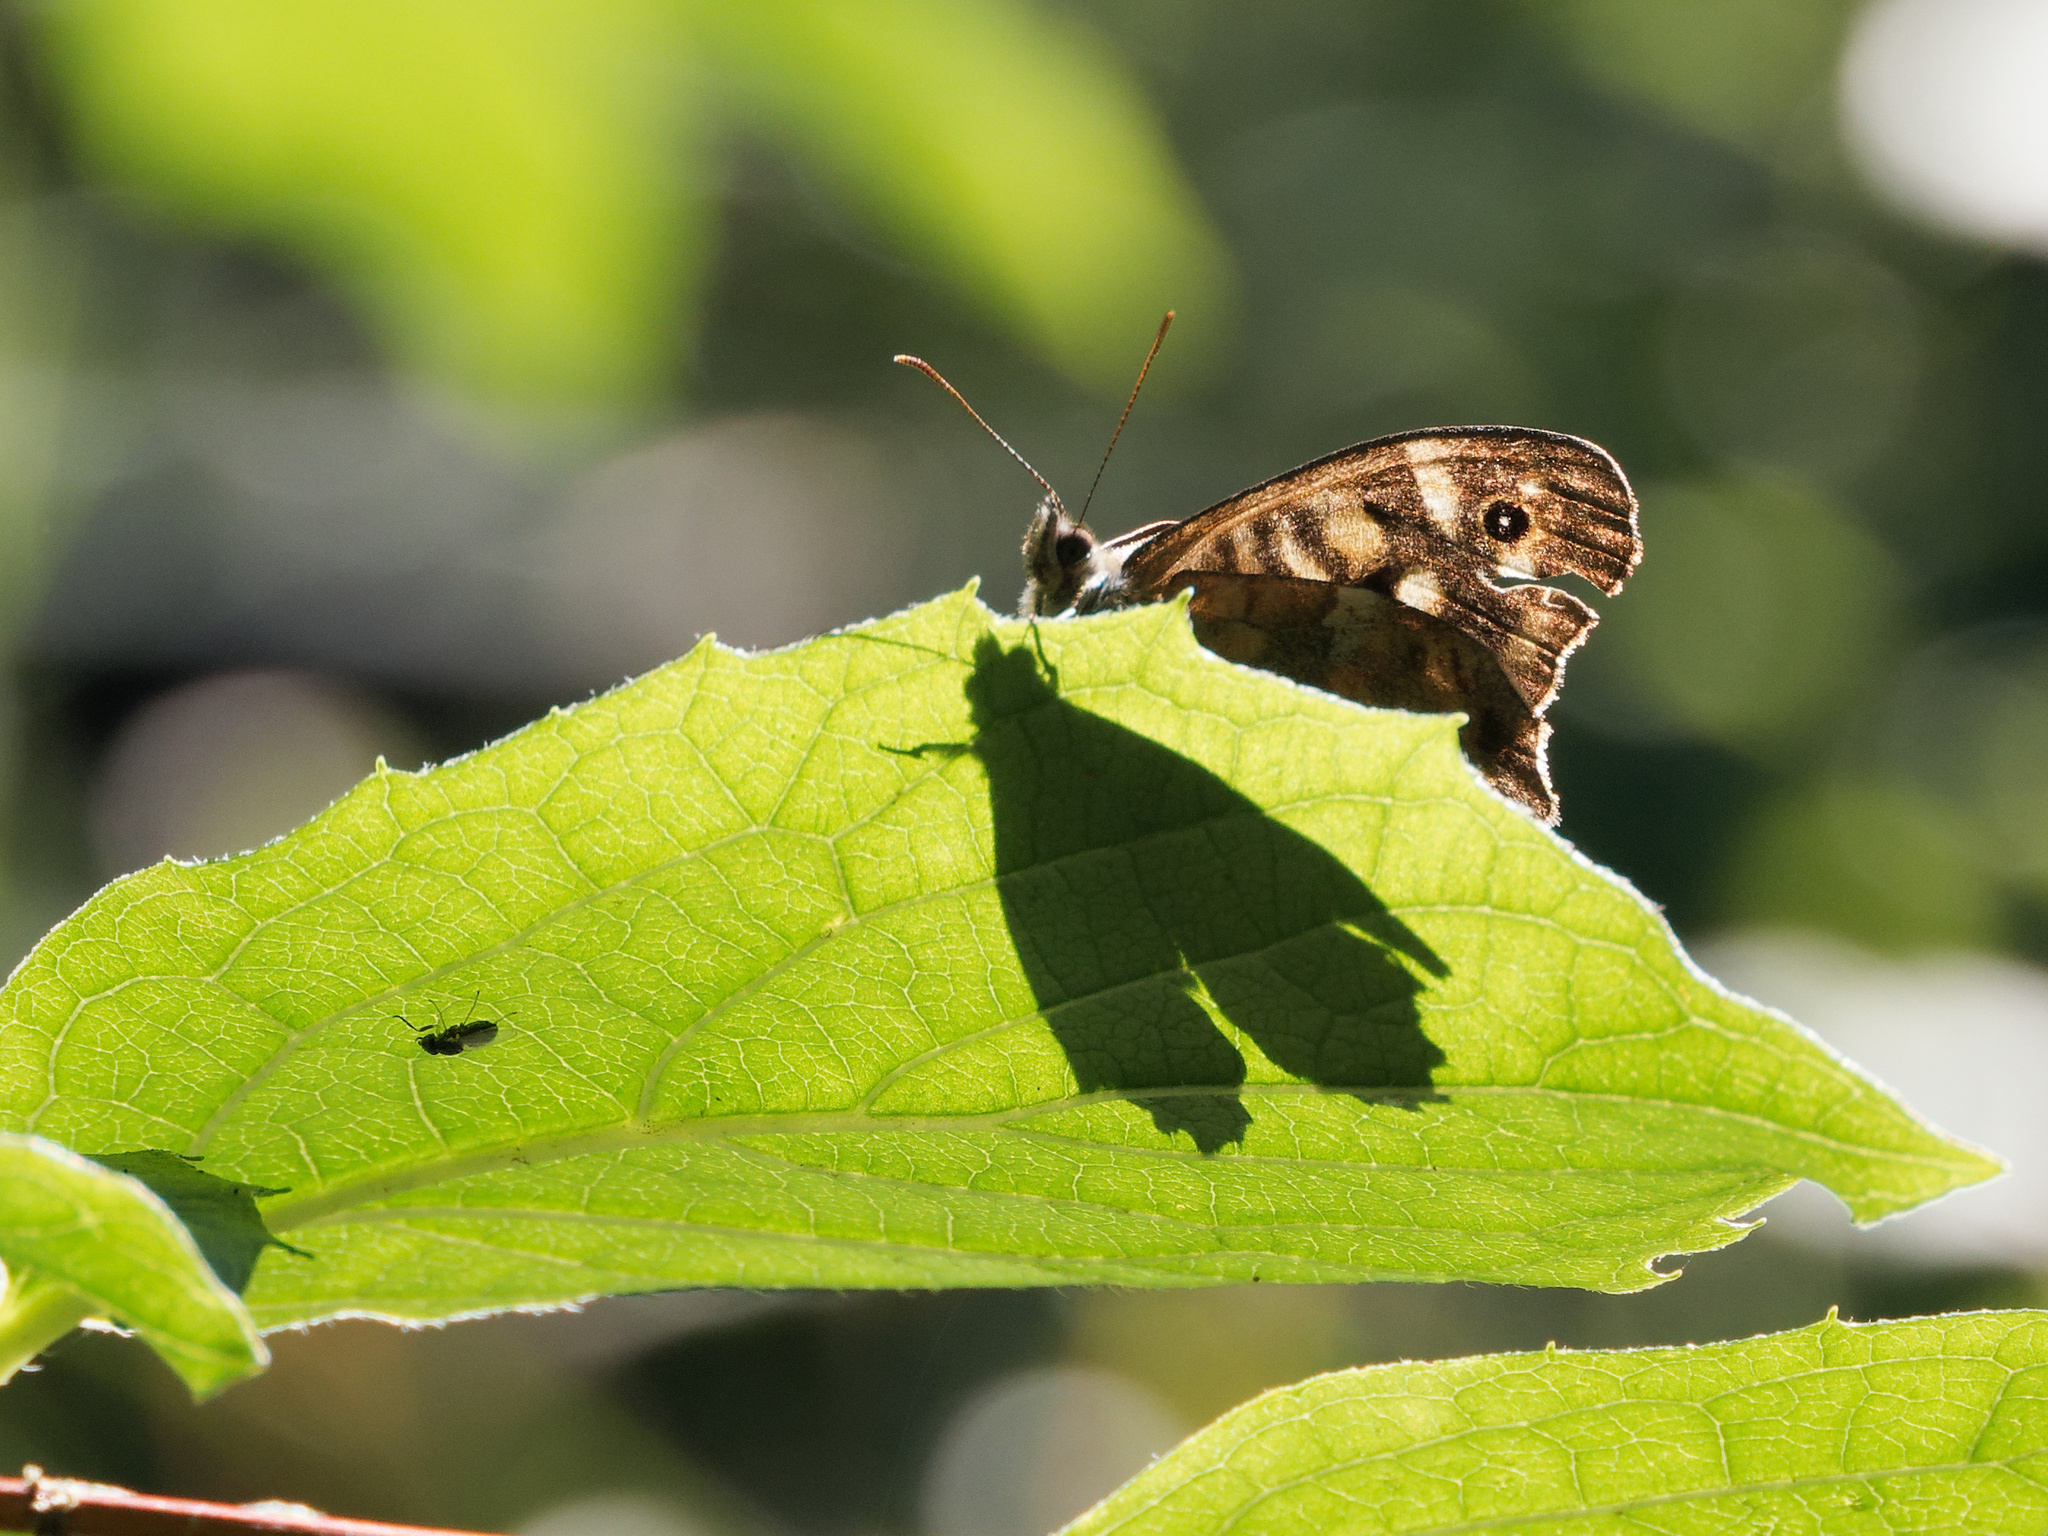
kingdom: Animalia
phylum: Arthropoda
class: Insecta
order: Lepidoptera
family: Nymphalidae
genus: Pararge
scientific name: Pararge aegeria
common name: Speckled wood
